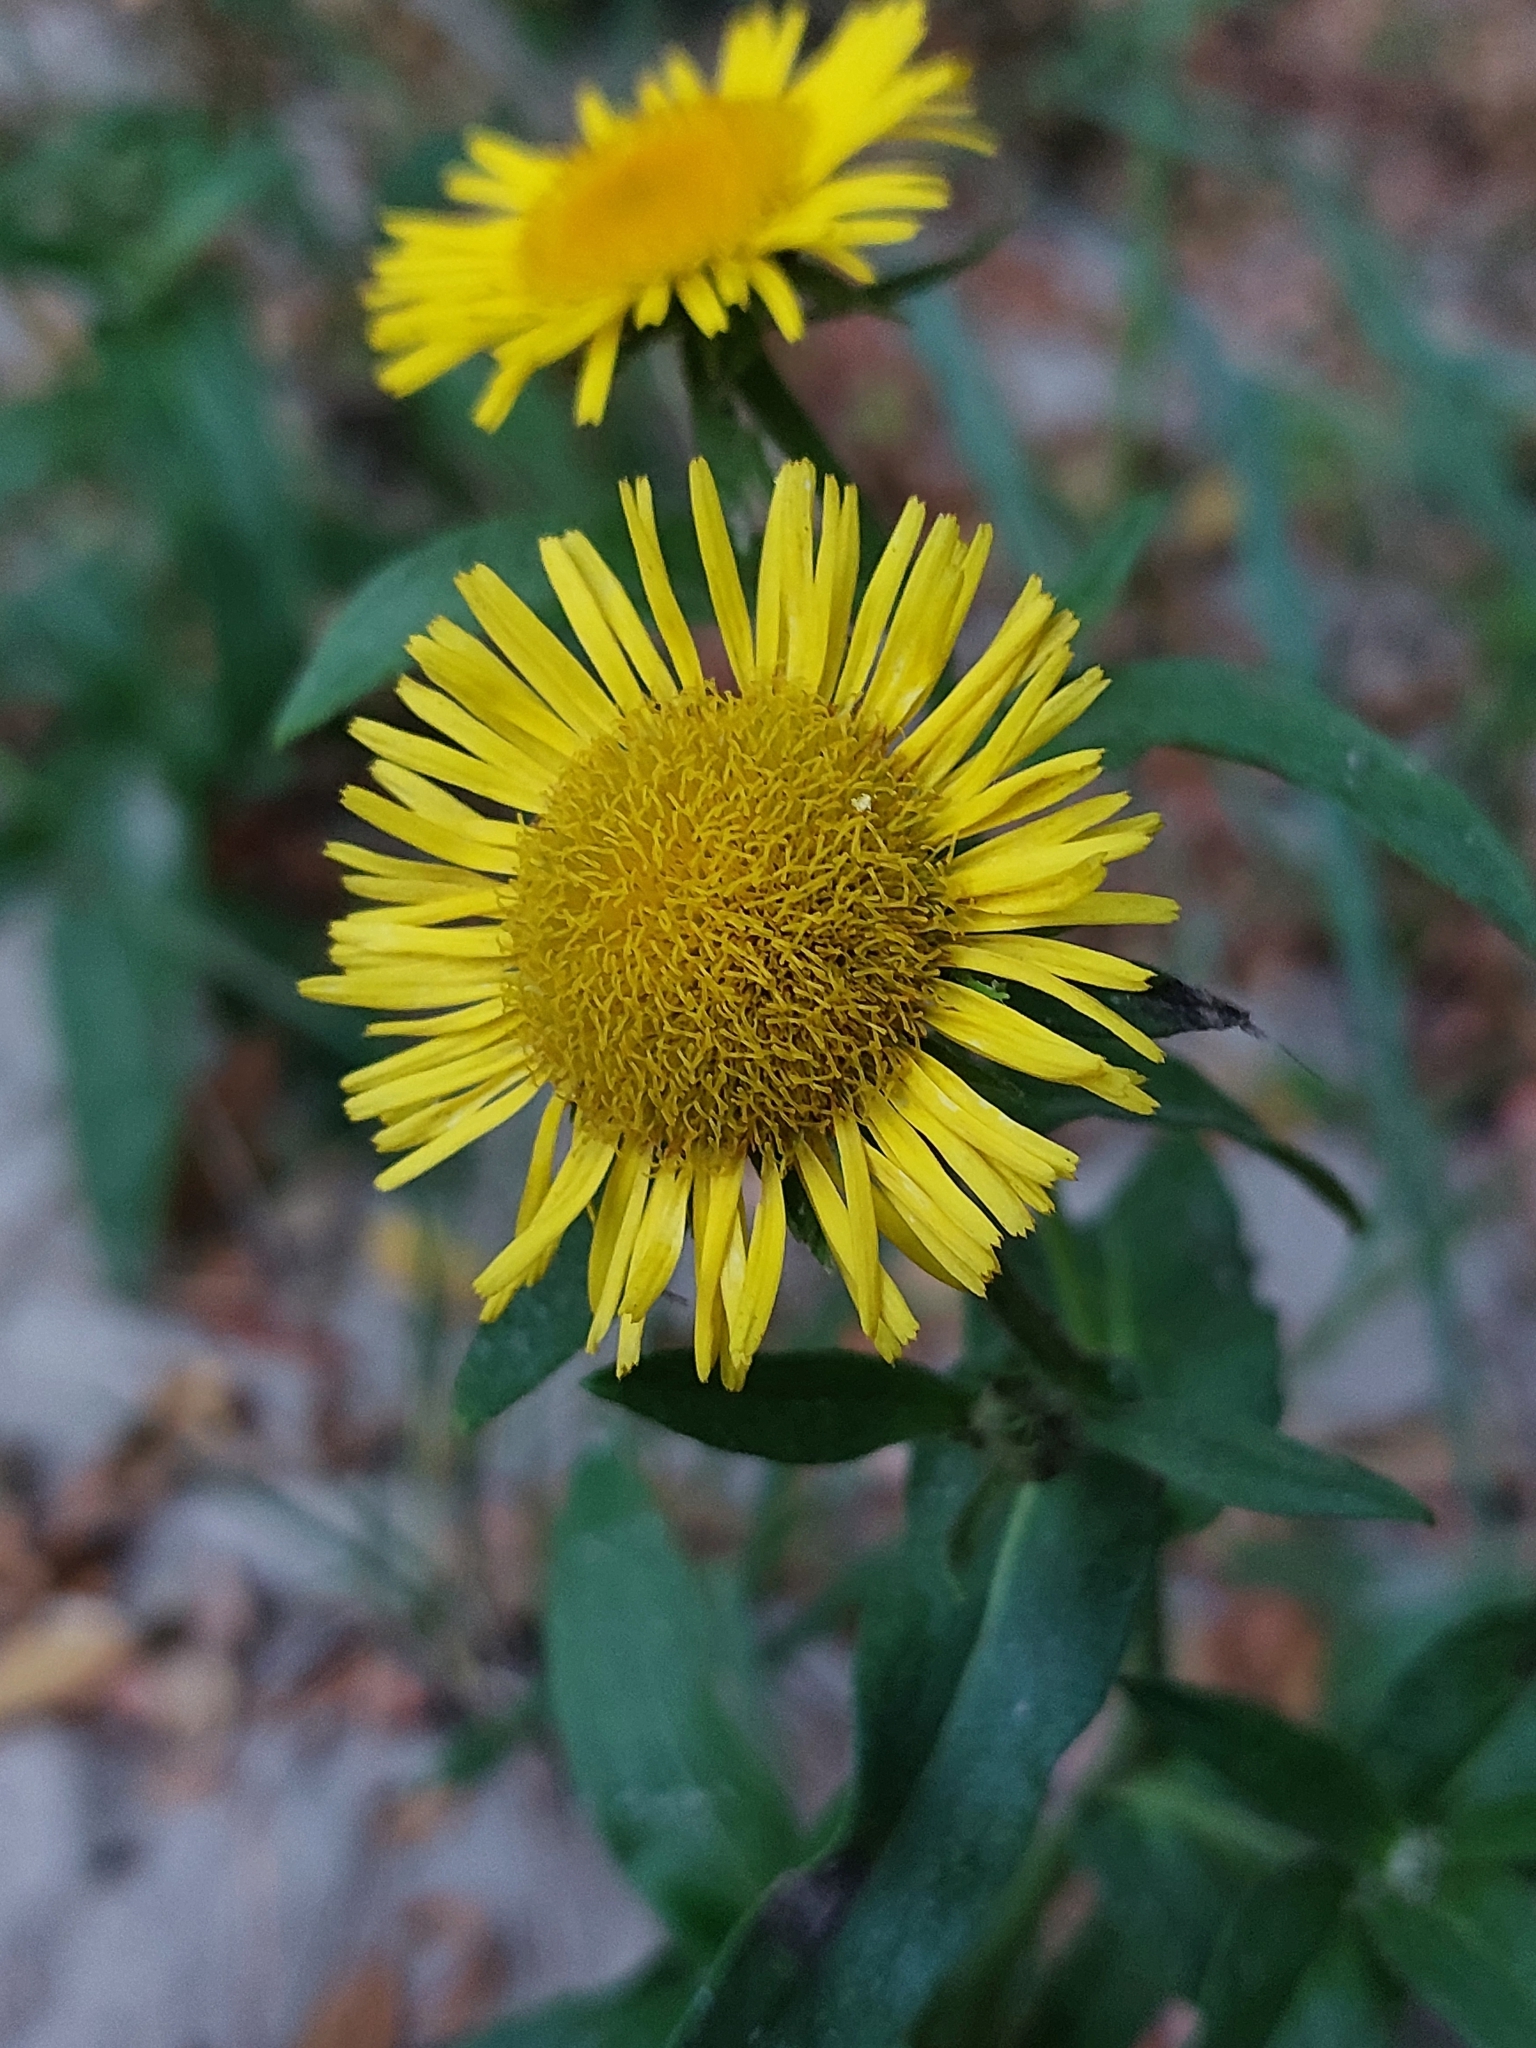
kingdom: Plantae
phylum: Tracheophyta
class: Magnoliopsida
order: Asterales
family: Asteraceae
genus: Pentanema
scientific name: Pentanema britannicum
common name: British elecampane
